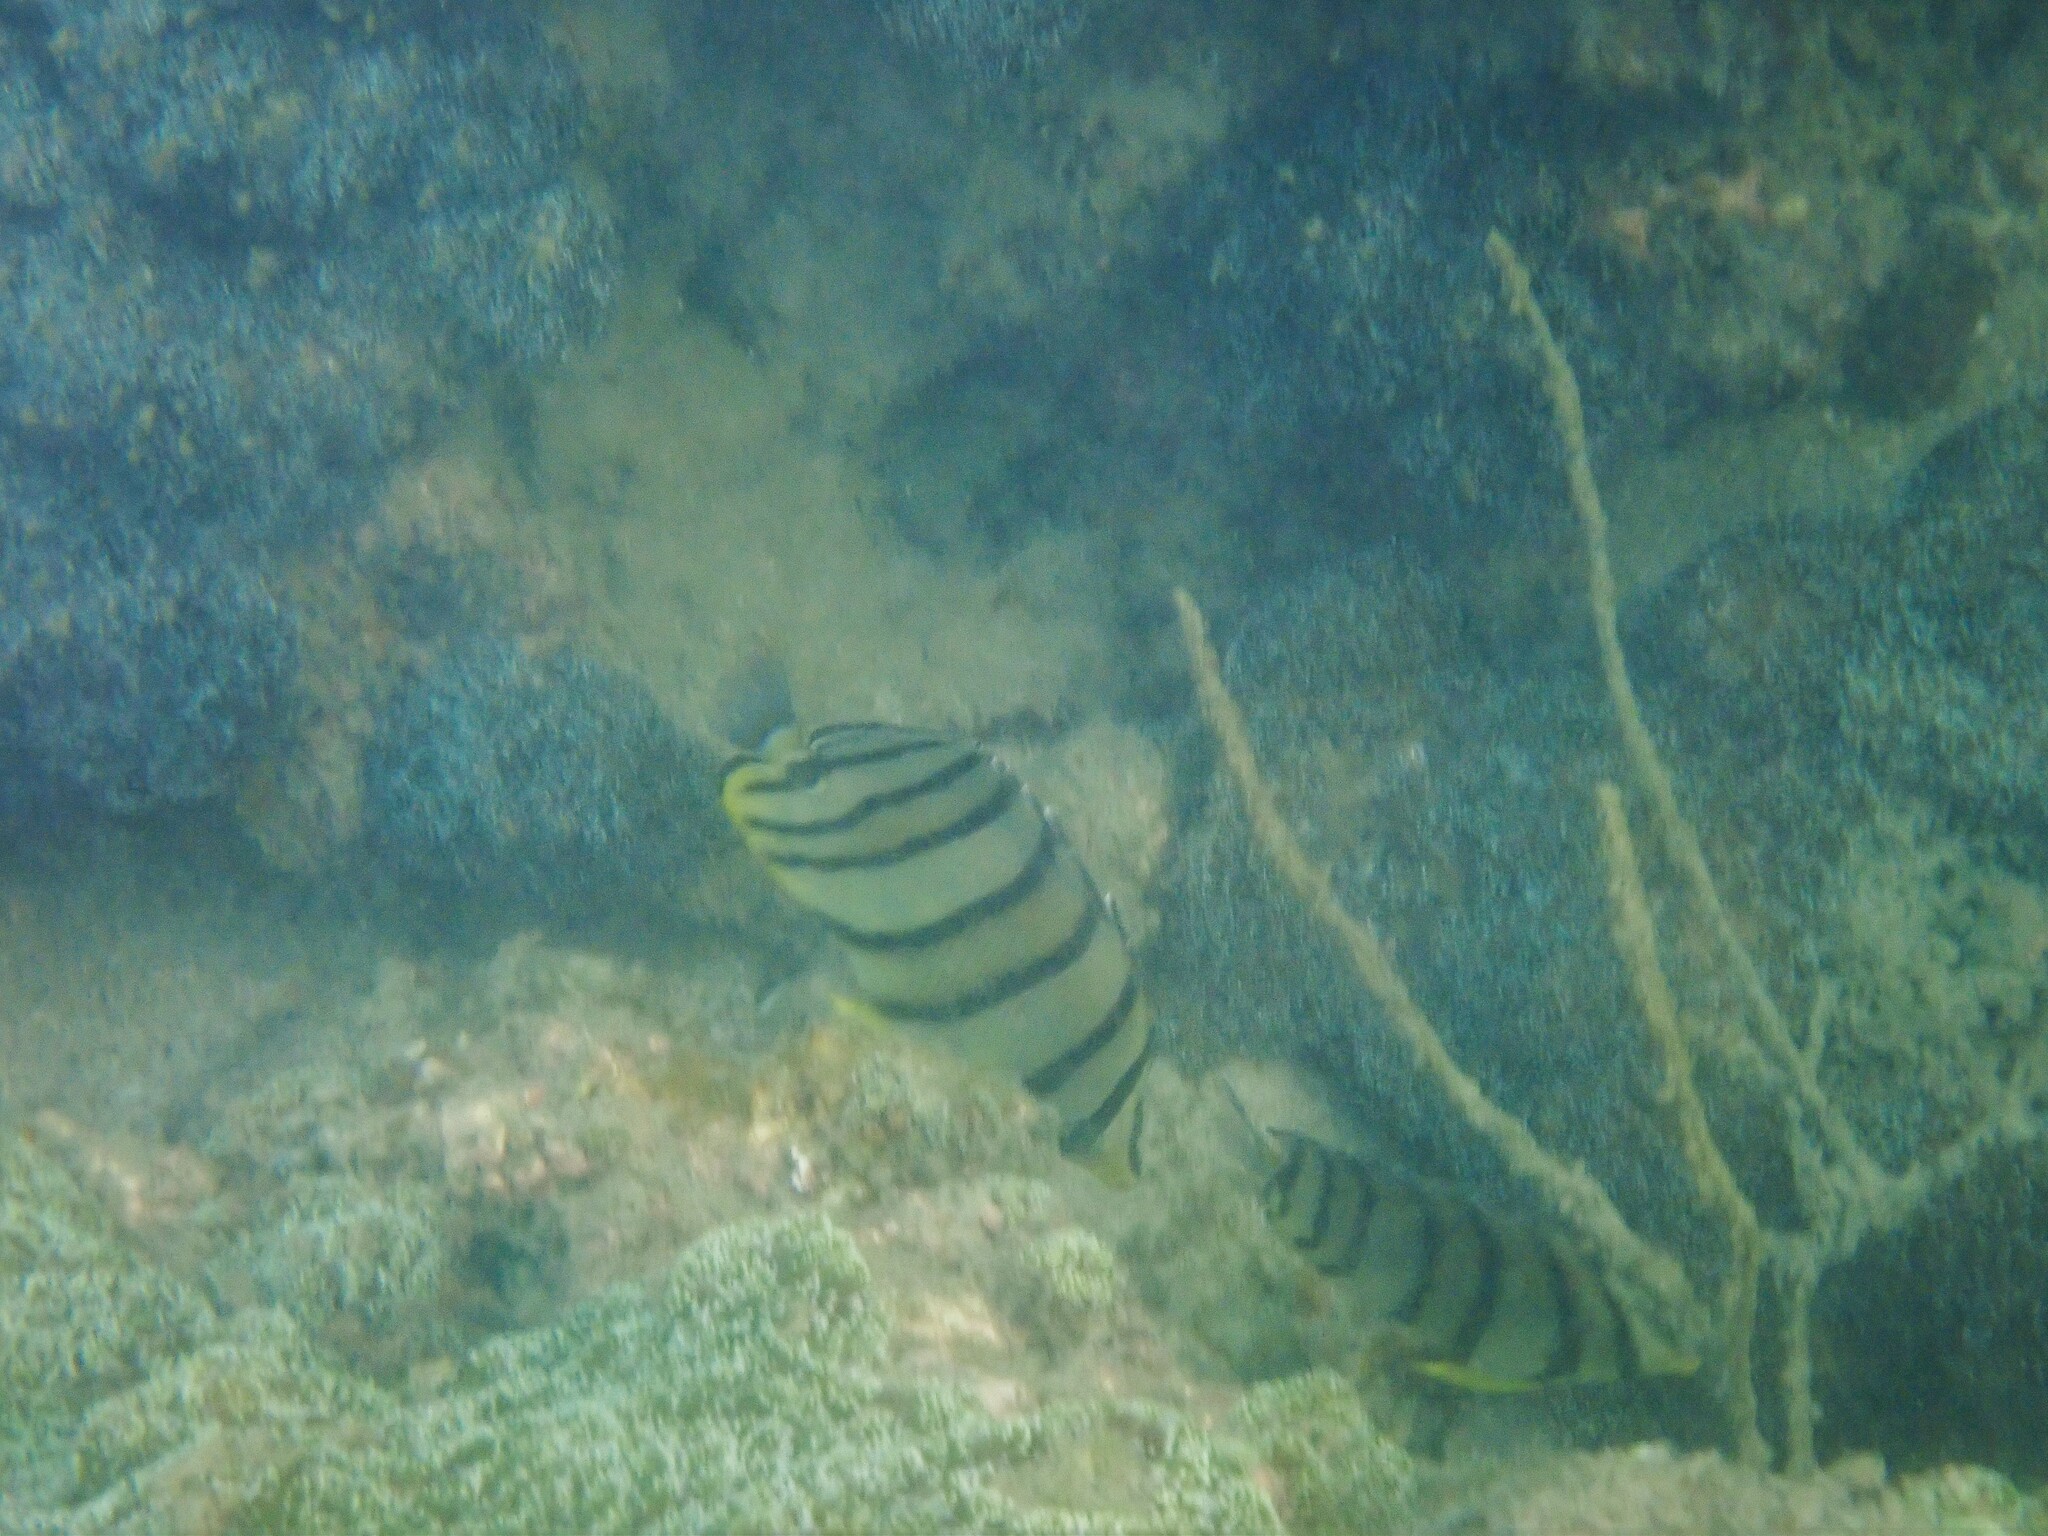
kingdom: Animalia
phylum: Chordata
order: Perciformes
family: Chaetodontidae
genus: Chaetodon
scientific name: Chaetodon octofasciatus
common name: Eightband butterflyfish
